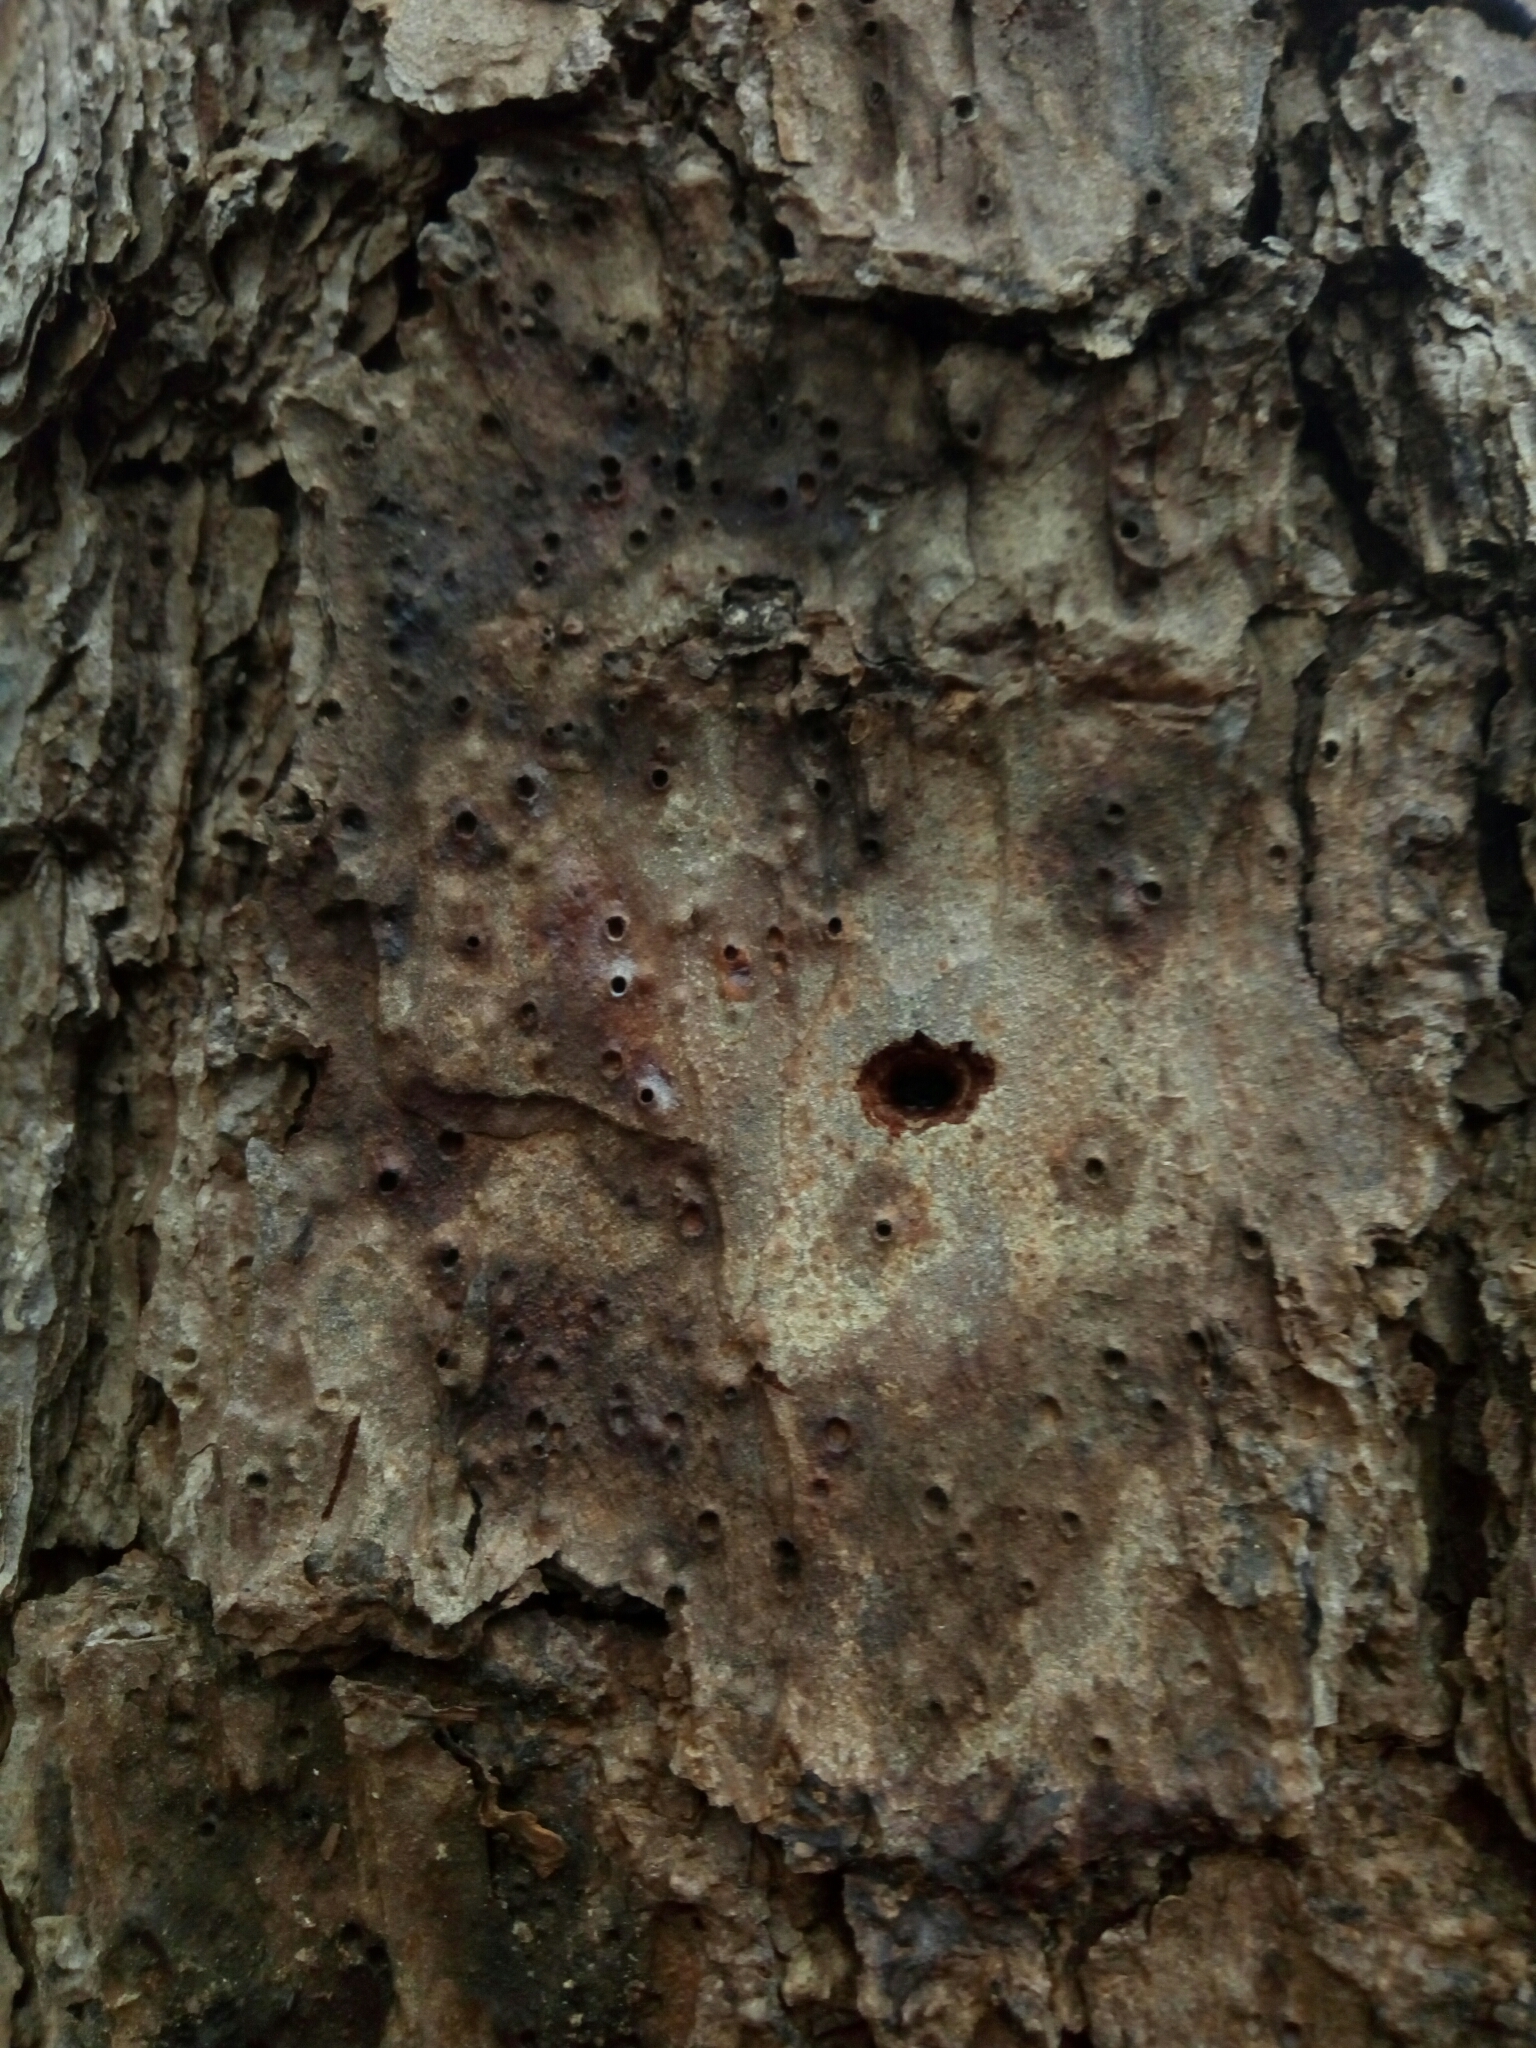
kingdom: Plantae
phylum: Tracheophyta
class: Pinopsida
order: Pinales
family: Pinaceae
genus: Pinus
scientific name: Pinus echinata
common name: Shortleaf pine
